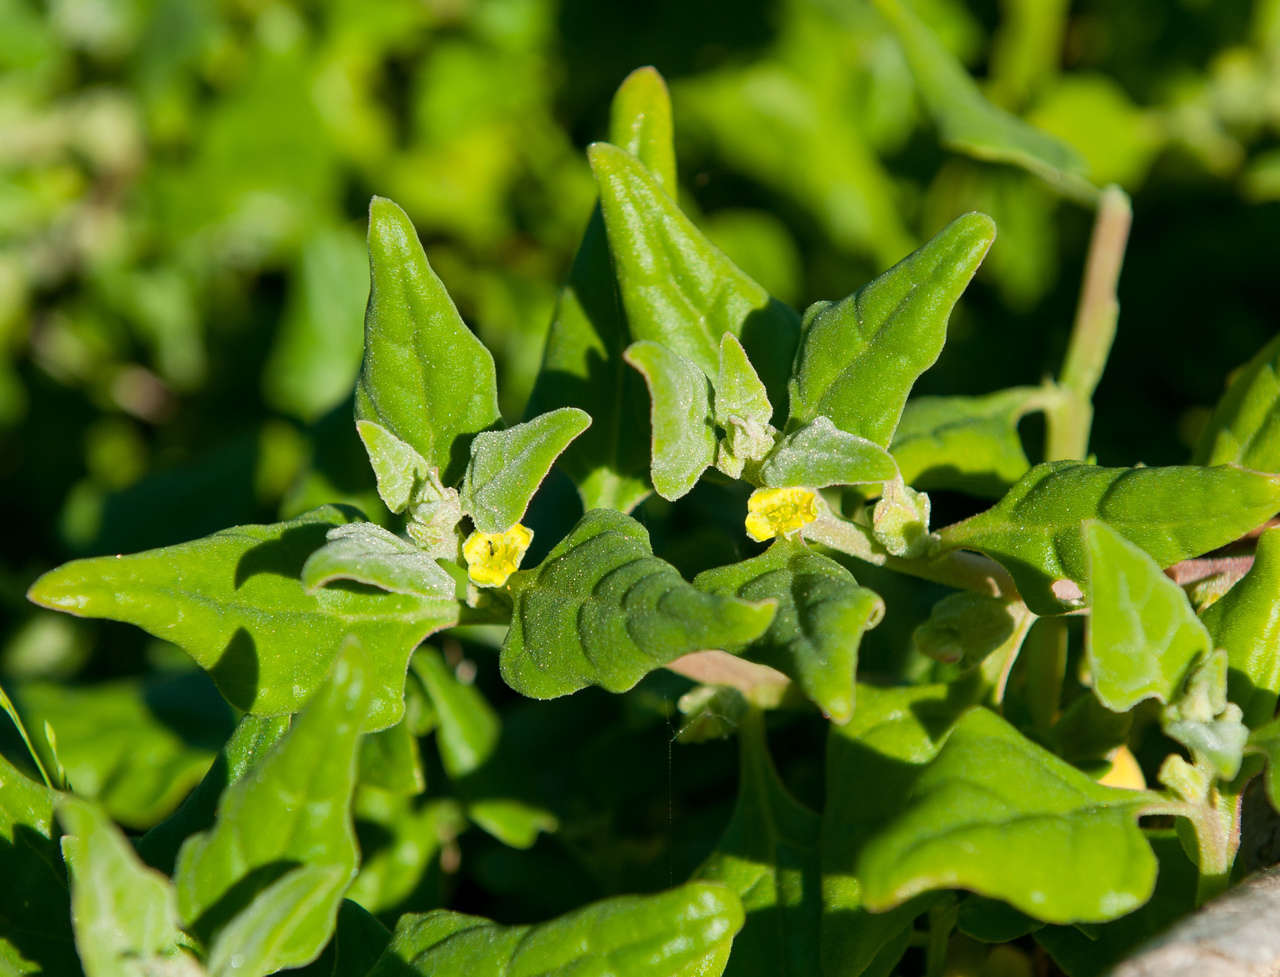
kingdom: Plantae
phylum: Tracheophyta
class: Magnoliopsida
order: Caryophyllales
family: Aizoaceae
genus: Tetragonia
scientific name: Tetragonia tetragonoides
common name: New zealand-spinach
